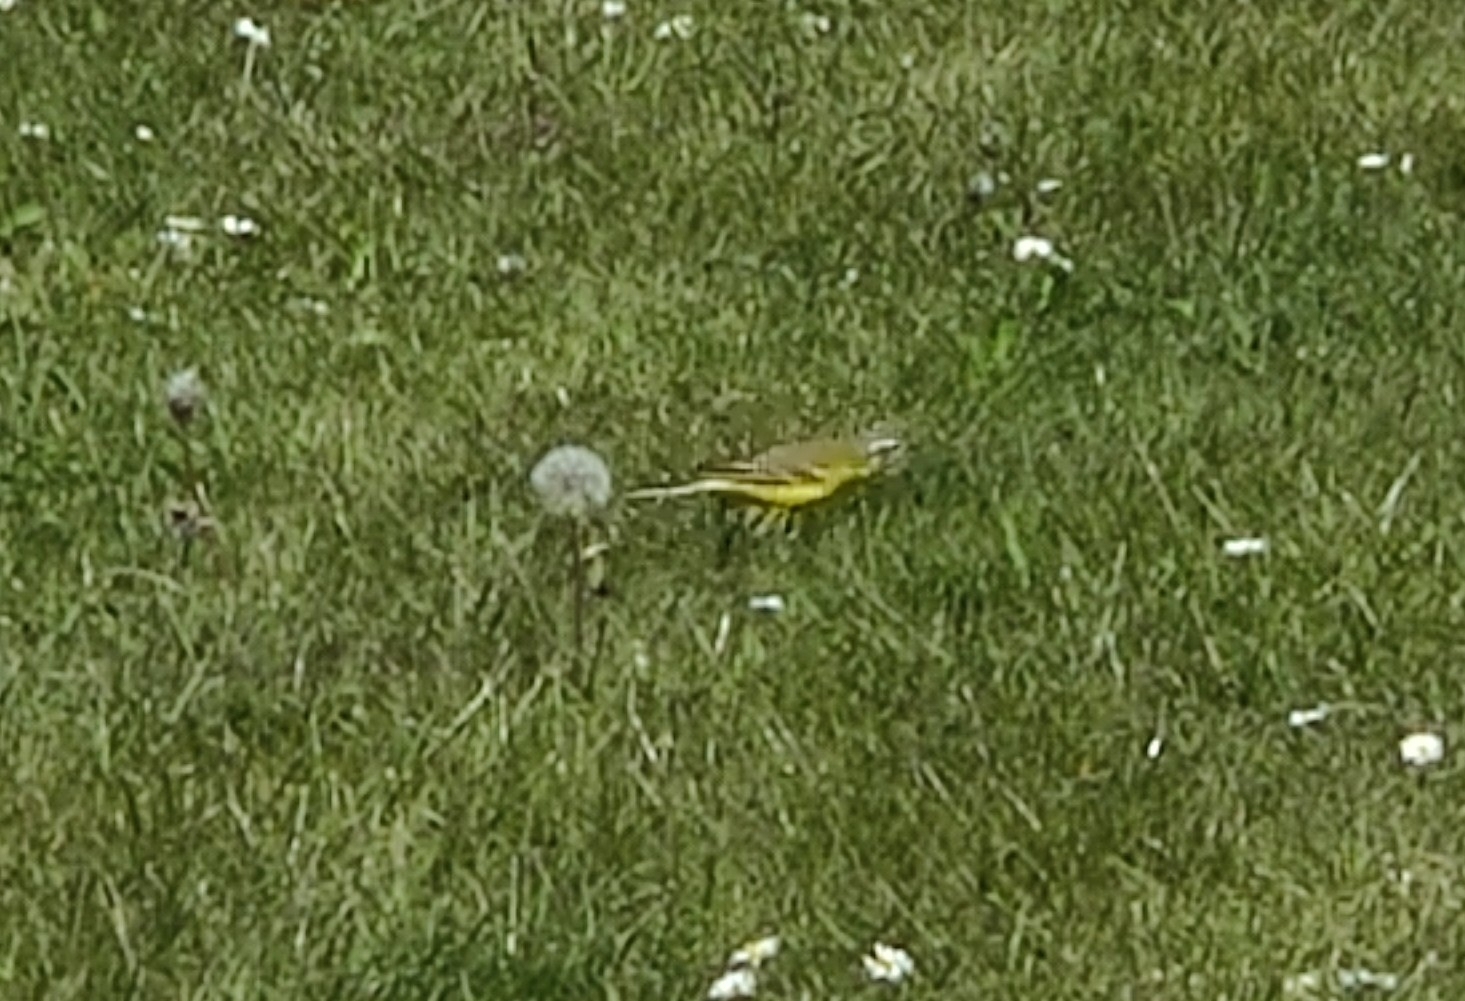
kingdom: Animalia
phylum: Chordata
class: Aves
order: Passeriformes
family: Motacillidae
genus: Motacilla
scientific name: Motacilla flava
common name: Western yellow wagtail
